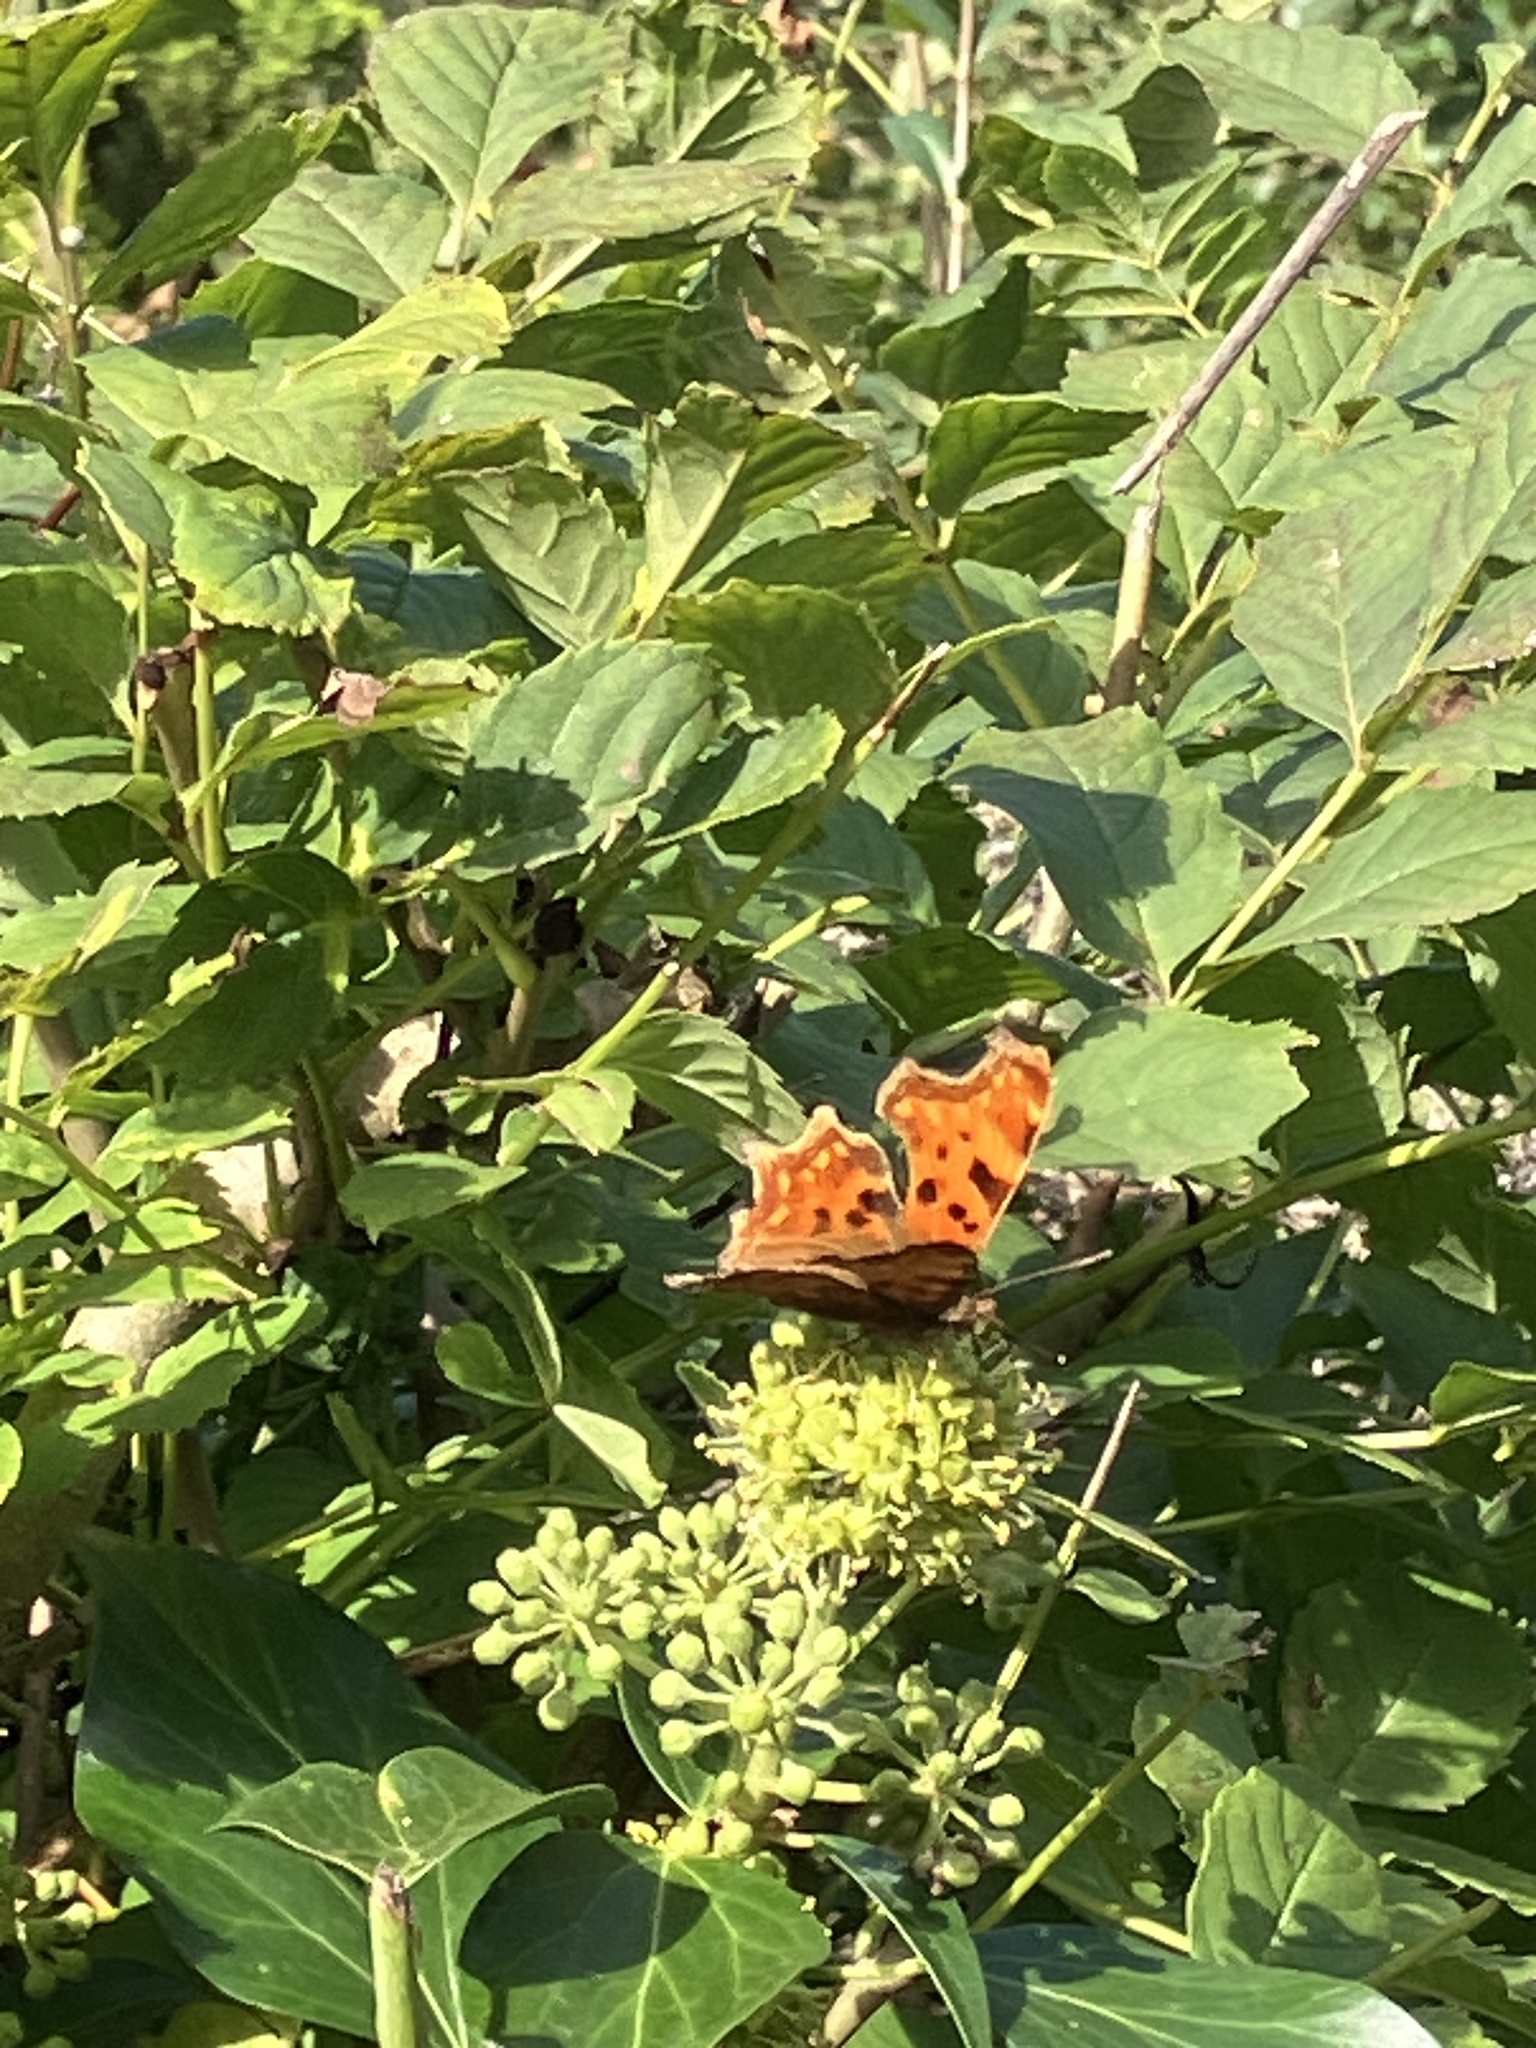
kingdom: Animalia
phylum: Arthropoda
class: Insecta
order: Lepidoptera
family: Nymphalidae
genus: Polygonia
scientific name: Polygonia c-album
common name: Comma
